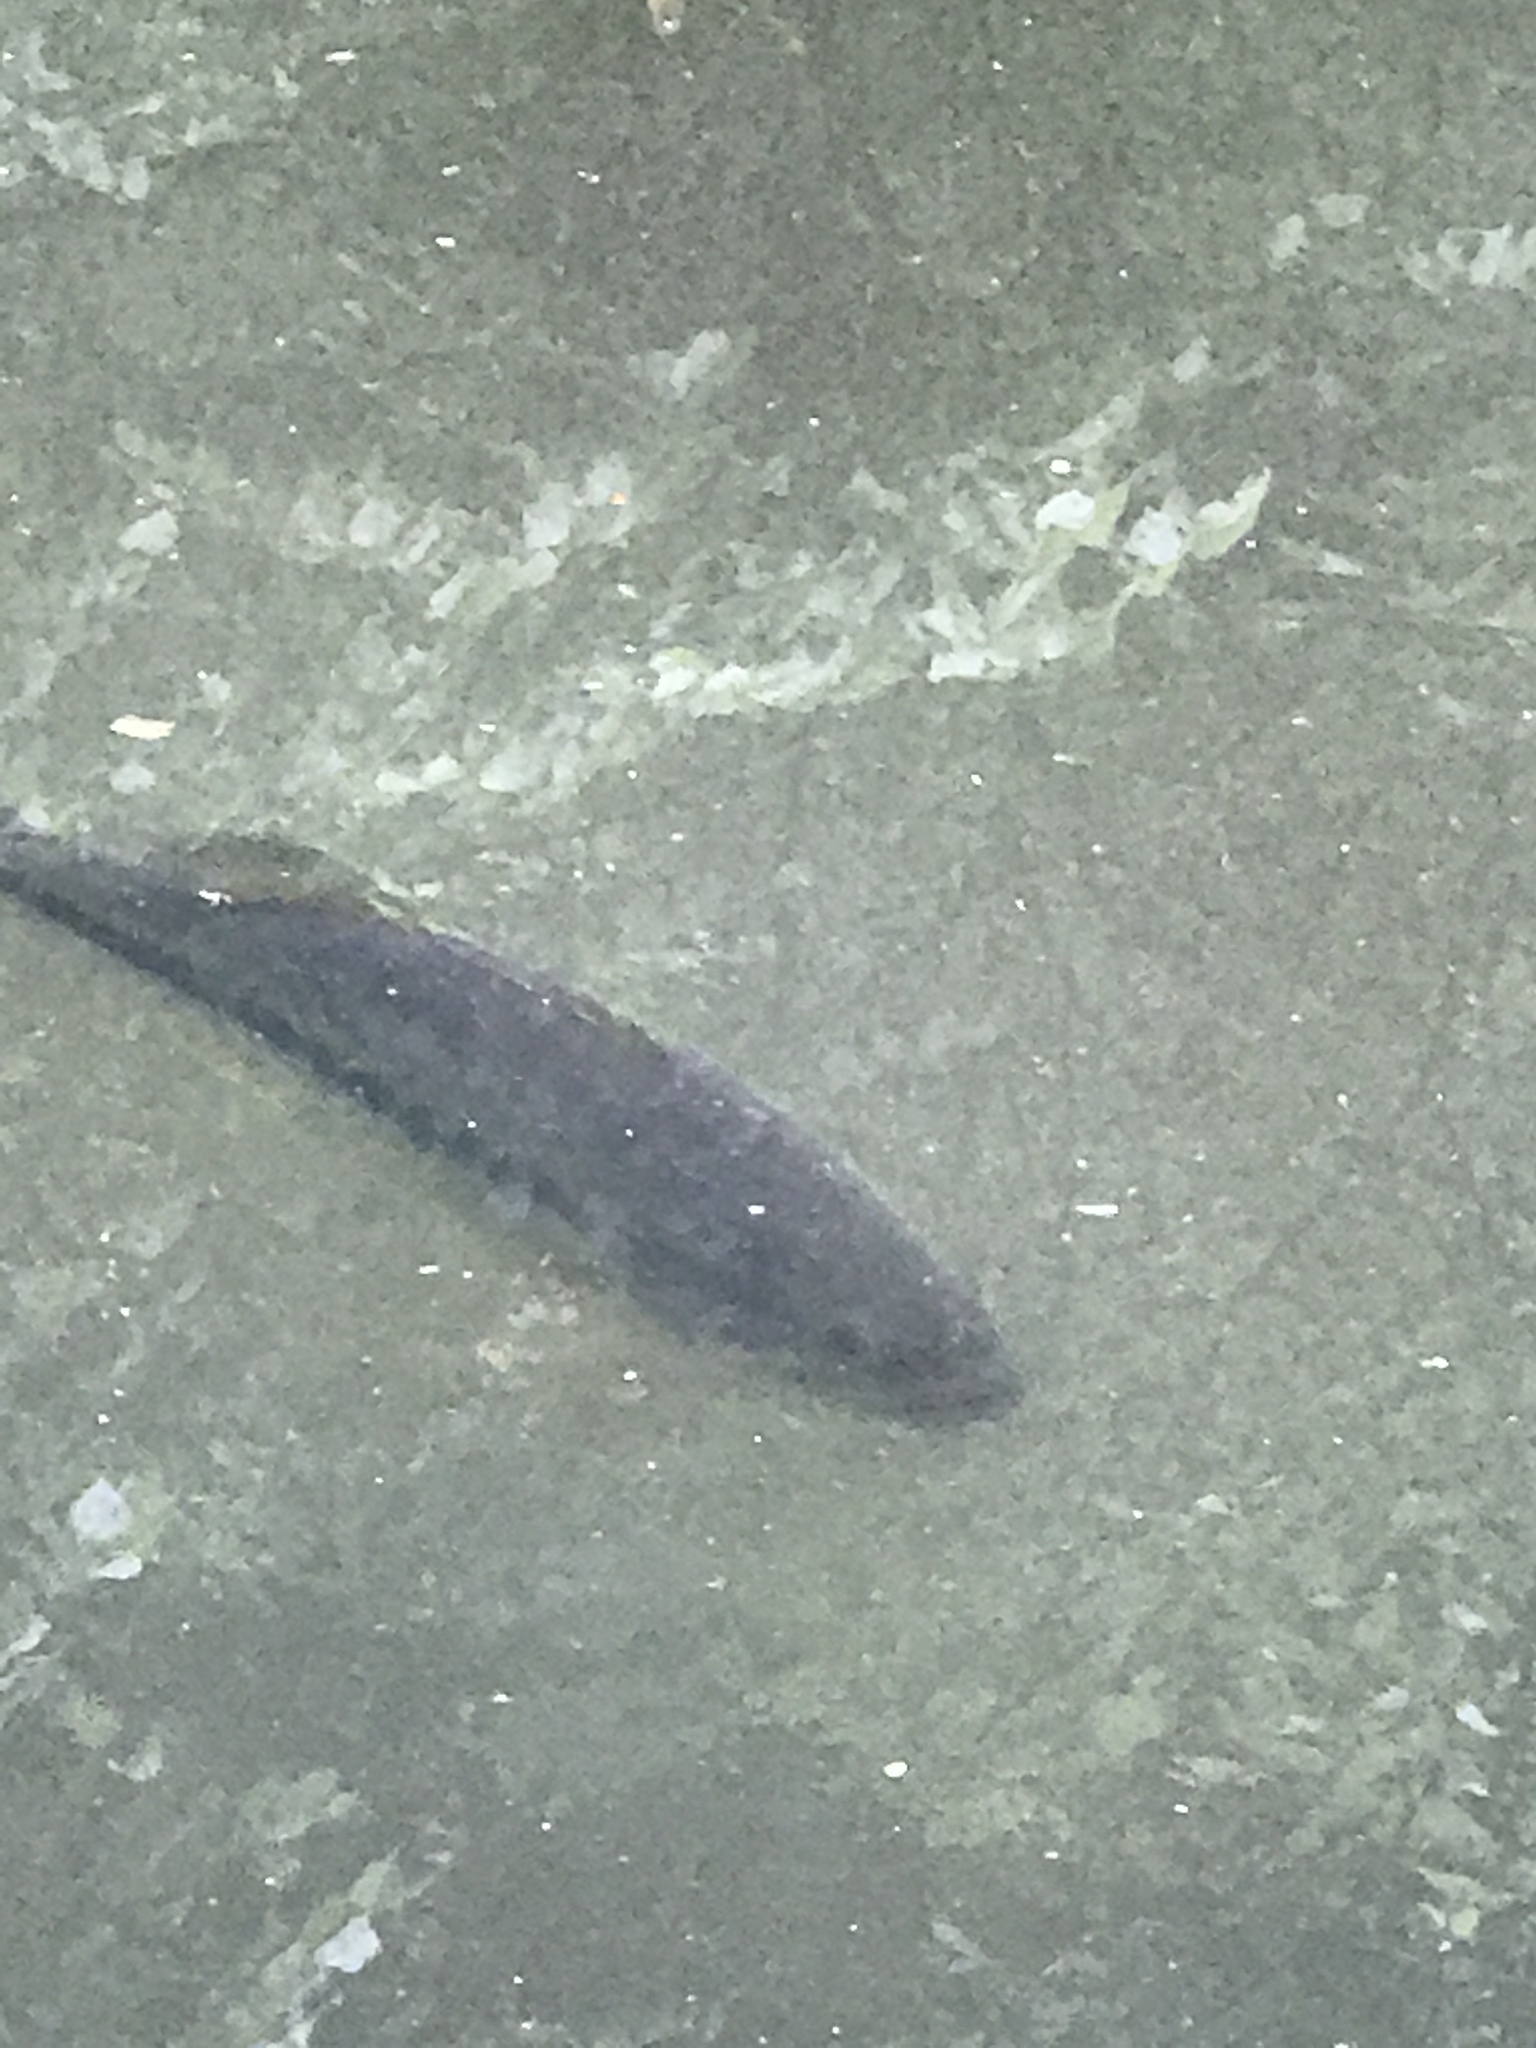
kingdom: Animalia
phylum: Chordata
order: Perciformes
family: Centrarchidae
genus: Micropterus
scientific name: Micropterus
